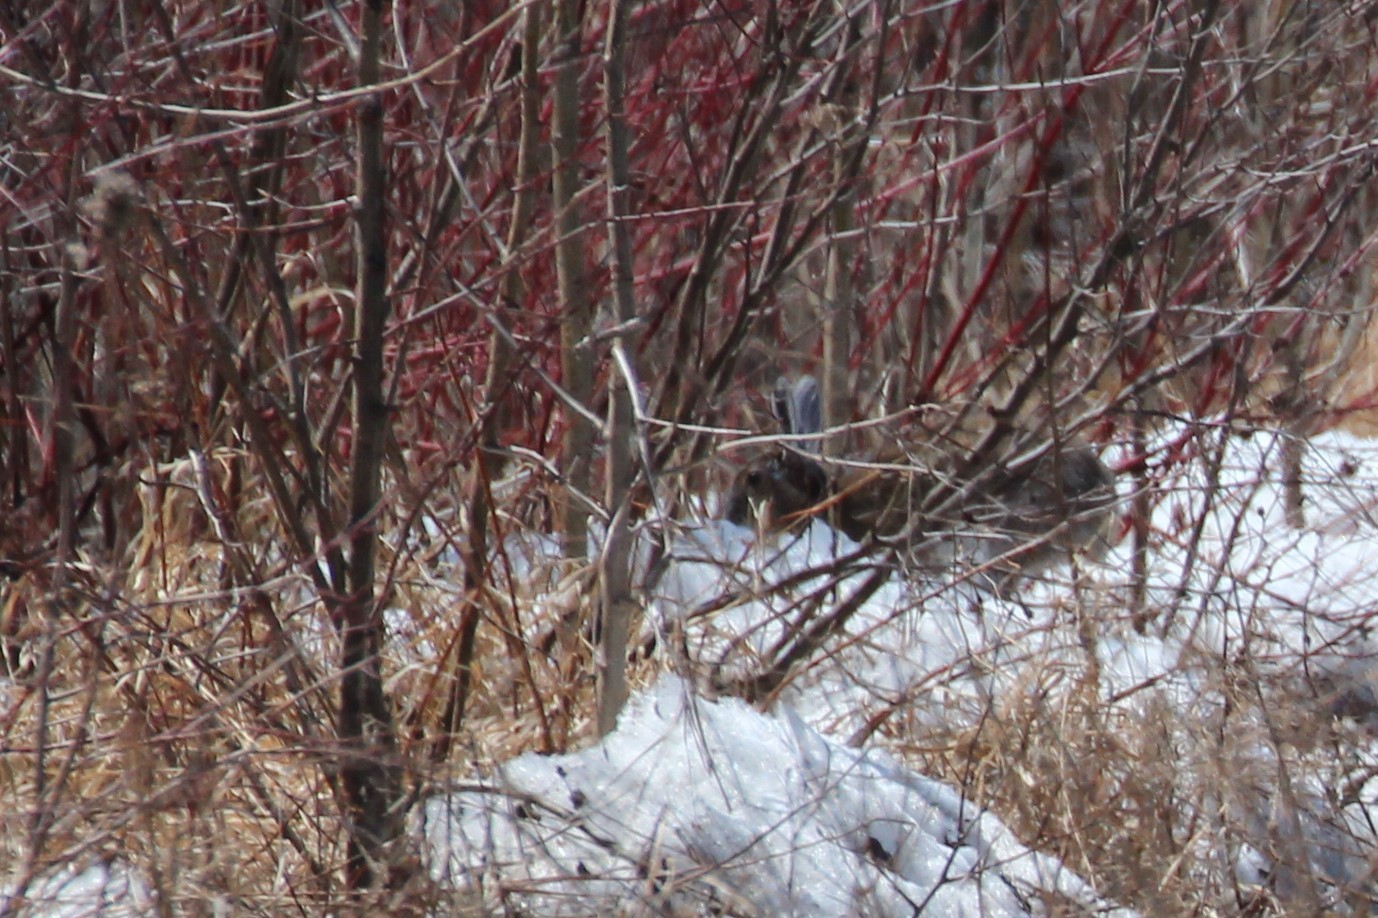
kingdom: Animalia
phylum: Chordata
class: Mammalia
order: Lagomorpha
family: Leporidae
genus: Lepus
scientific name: Lepus americanus
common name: Snowshoe hare
